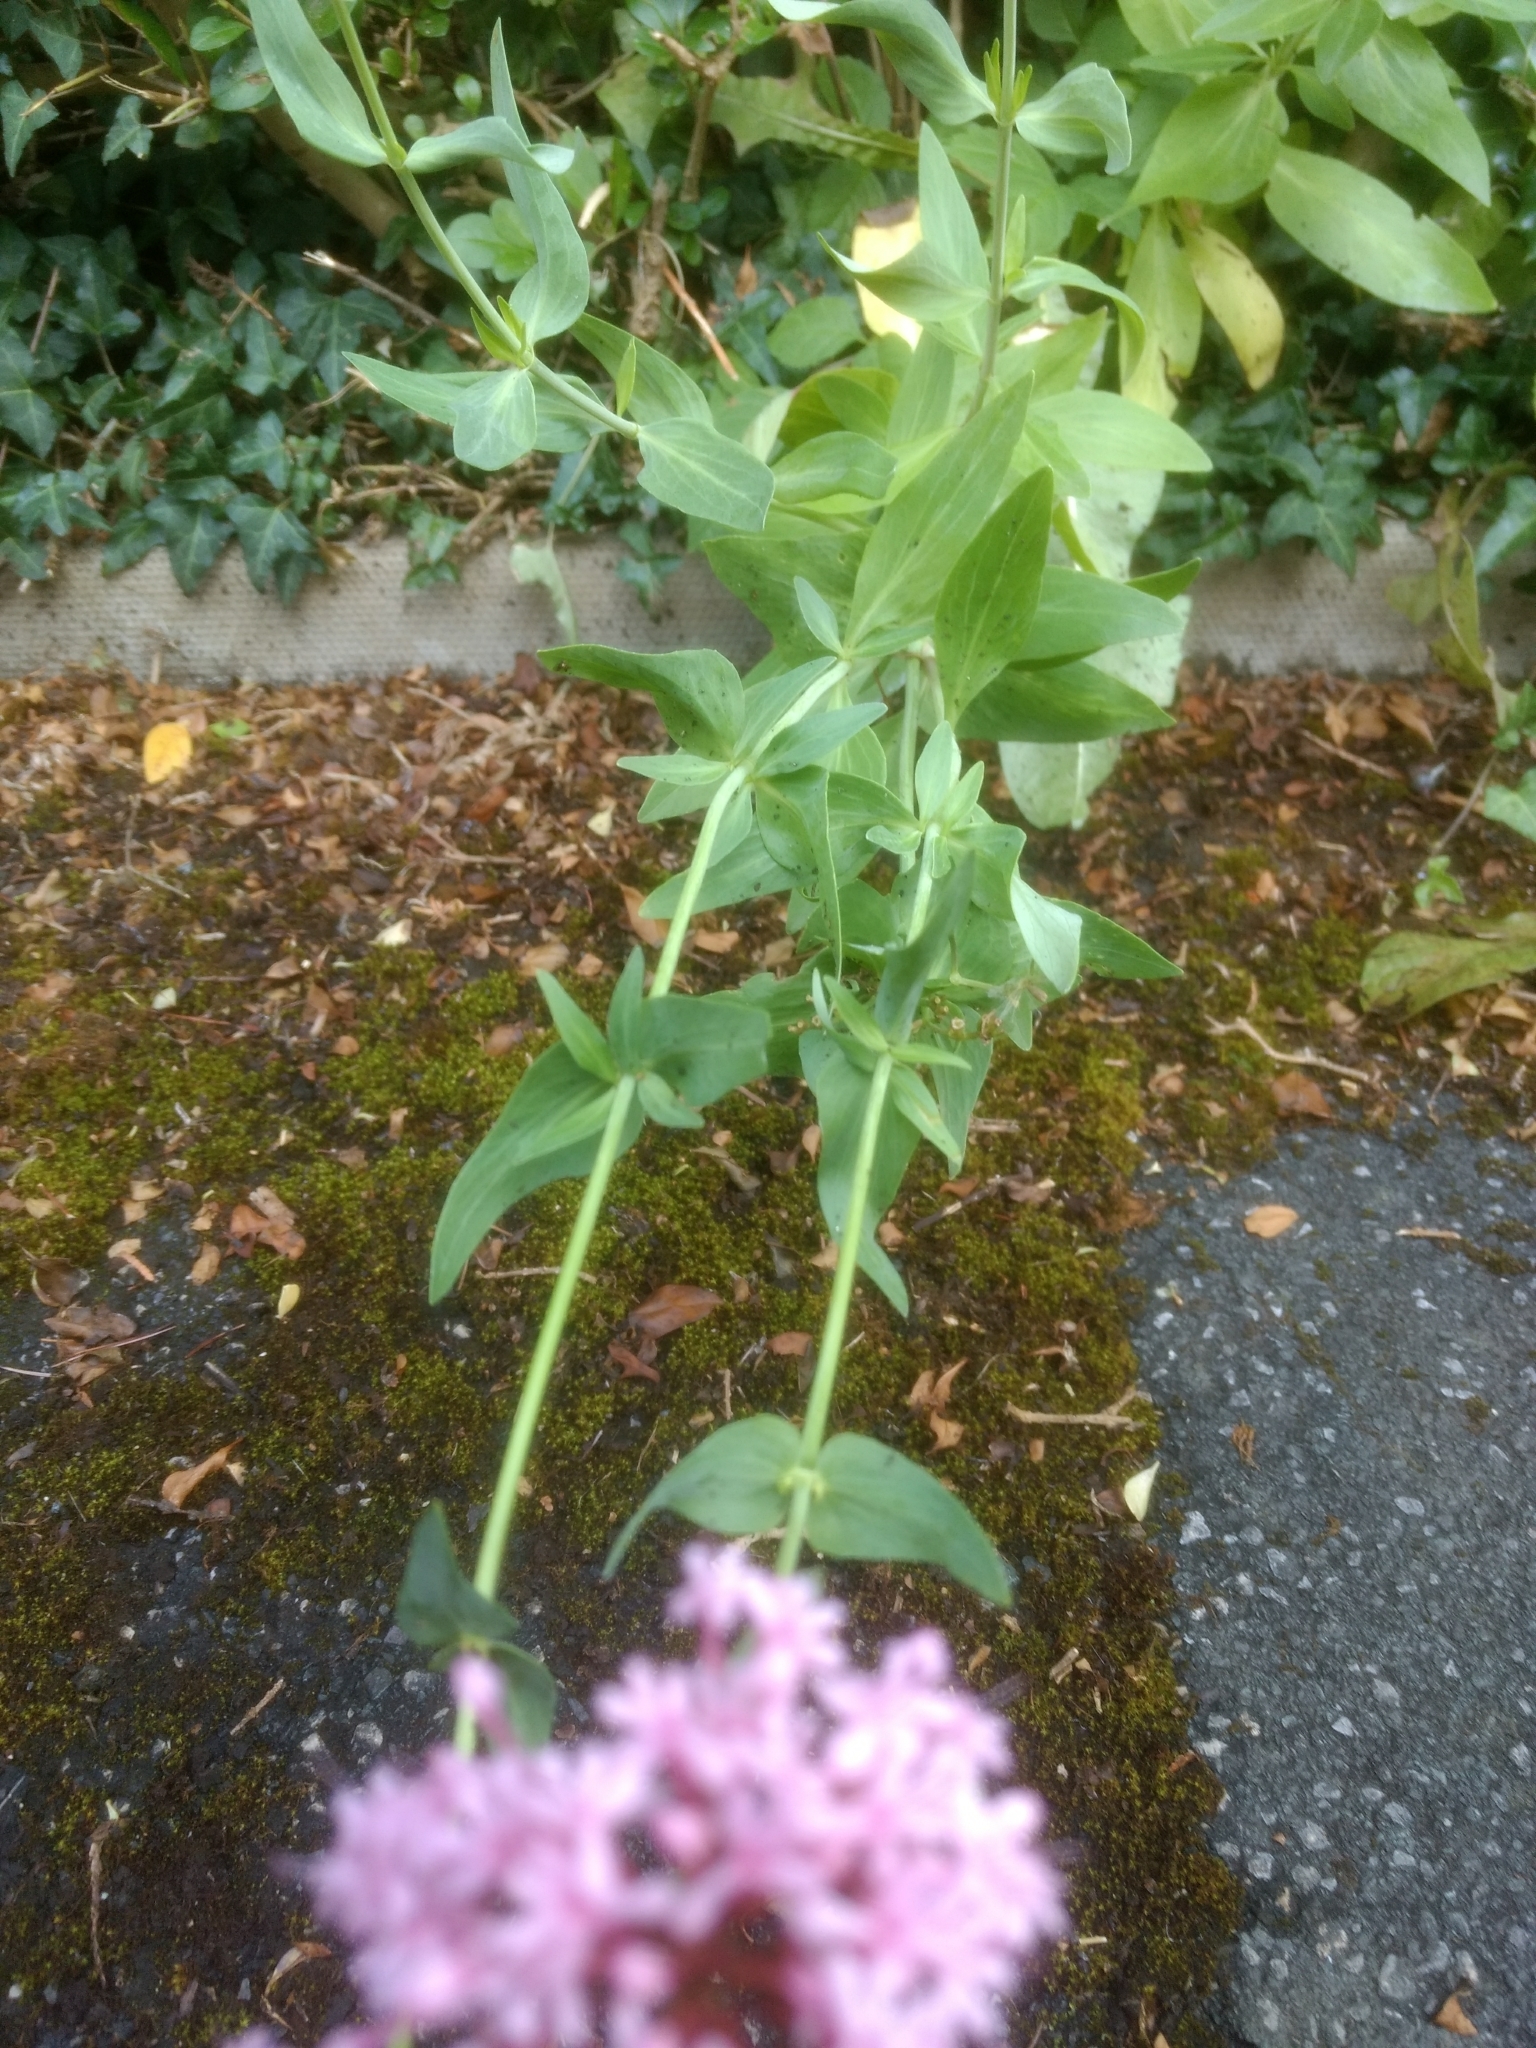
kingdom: Plantae
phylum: Tracheophyta
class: Magnoliopsida
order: Dipsacales
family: Caprifoliaceae
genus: Centranthus
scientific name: Centranthus ruber
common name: Red valerian
